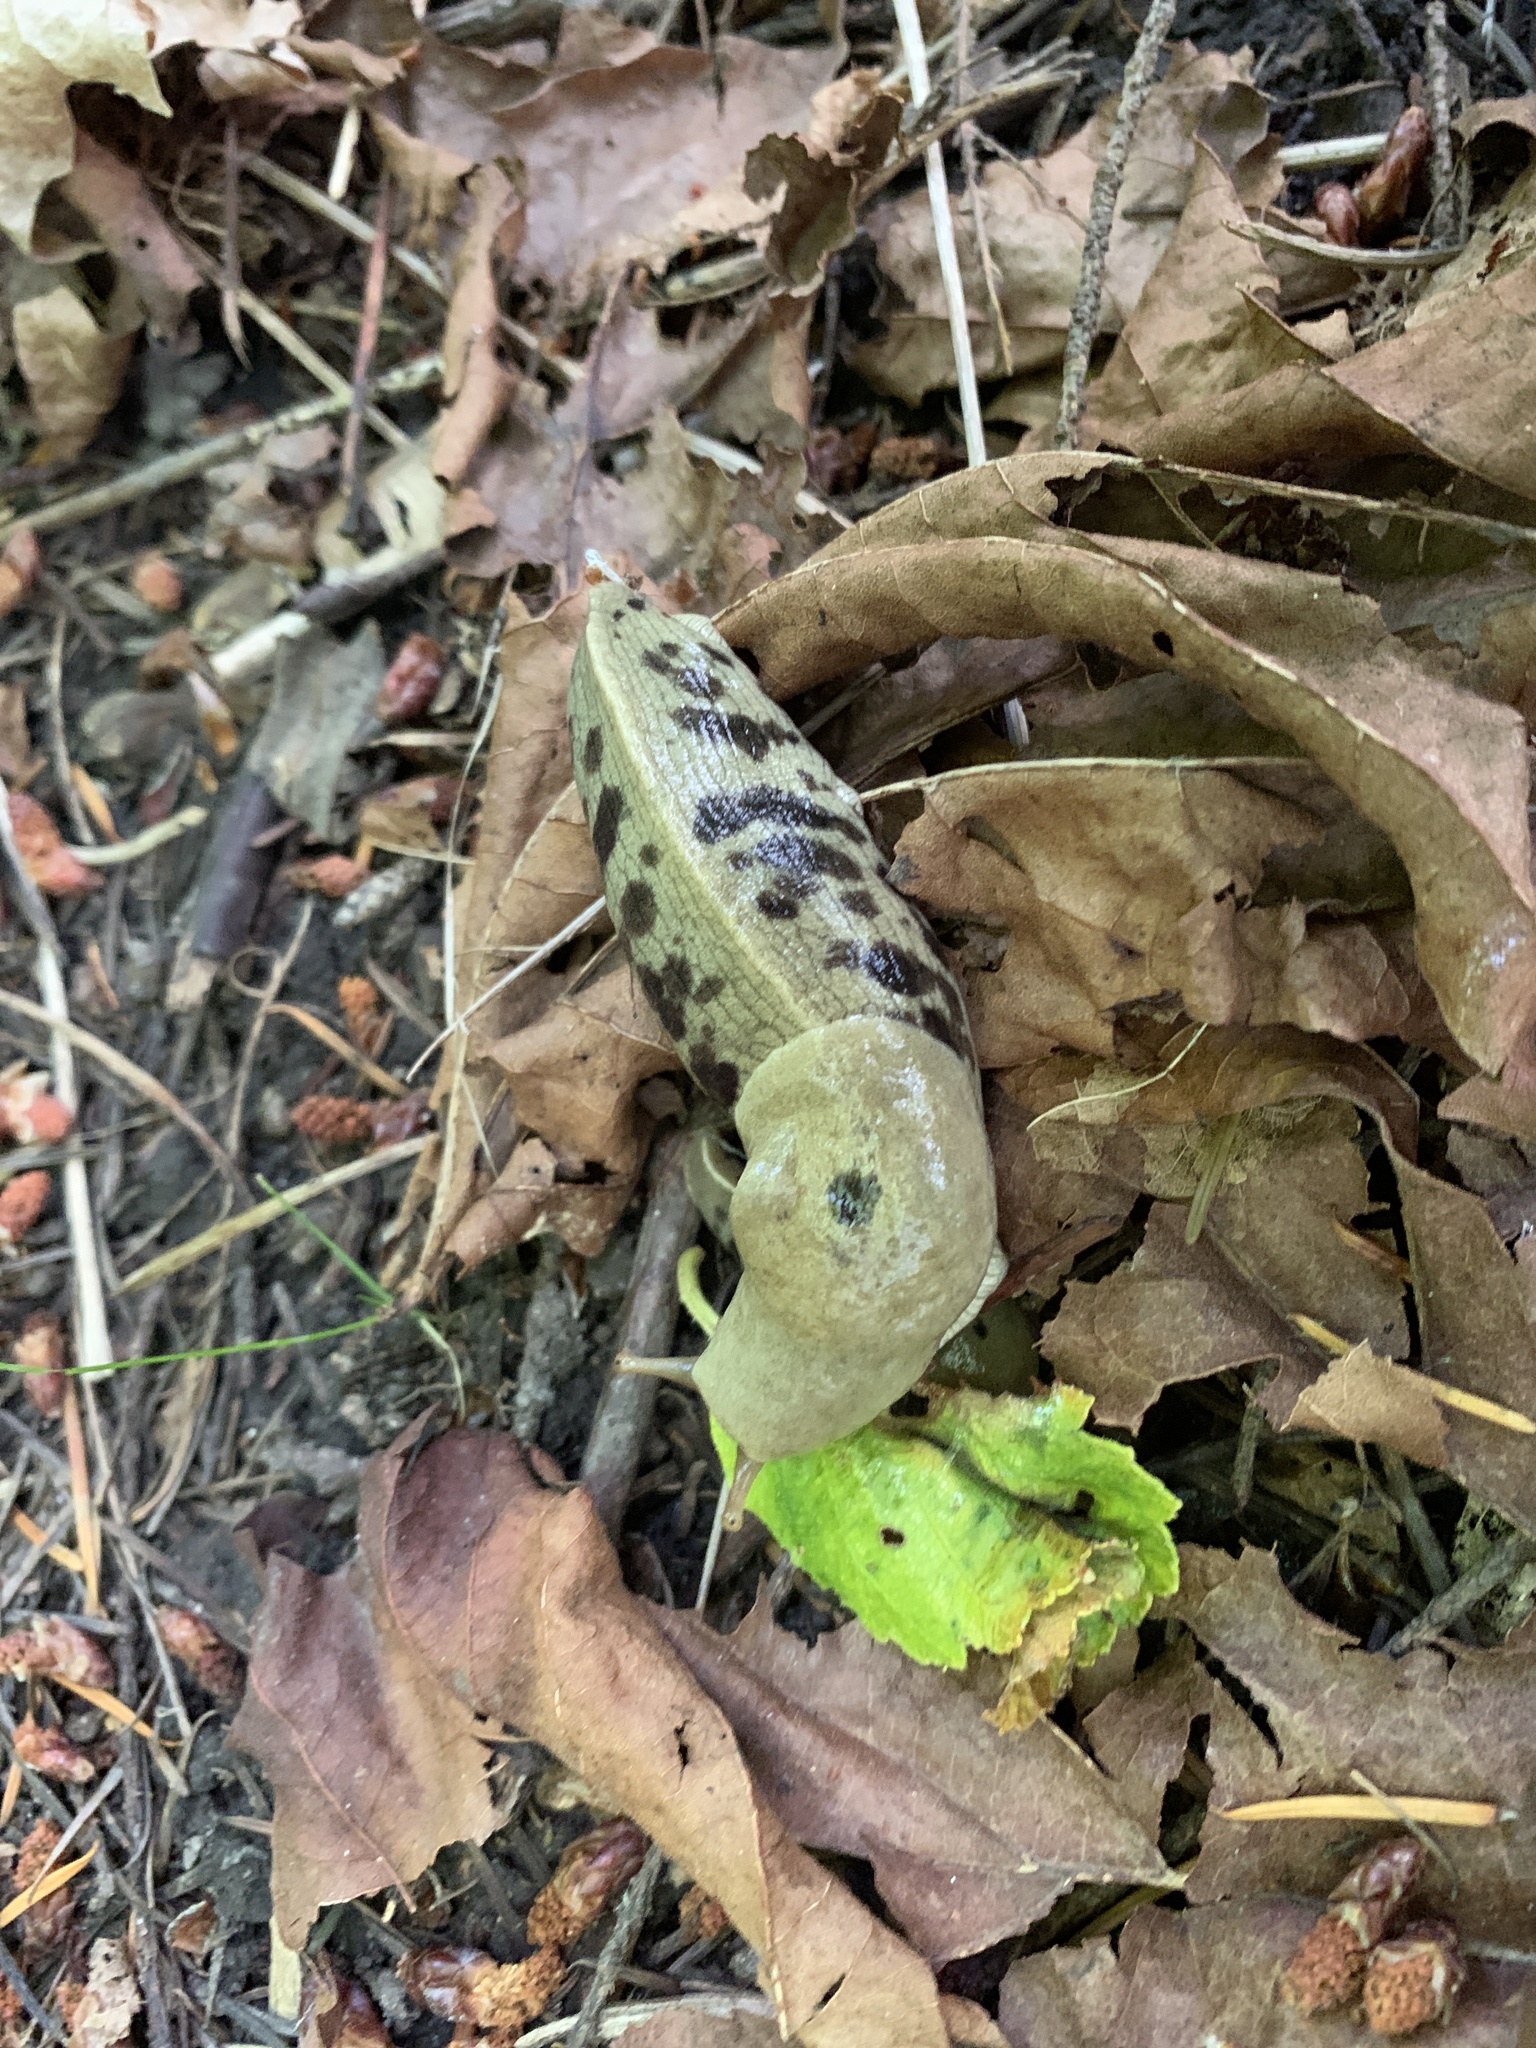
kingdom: Animalia
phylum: Mollusca
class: Gastropoda
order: Stylommatophora
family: Ariolimacidae
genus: Ariolimax
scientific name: Ariolimax columbianus
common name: Pacific banana slug
